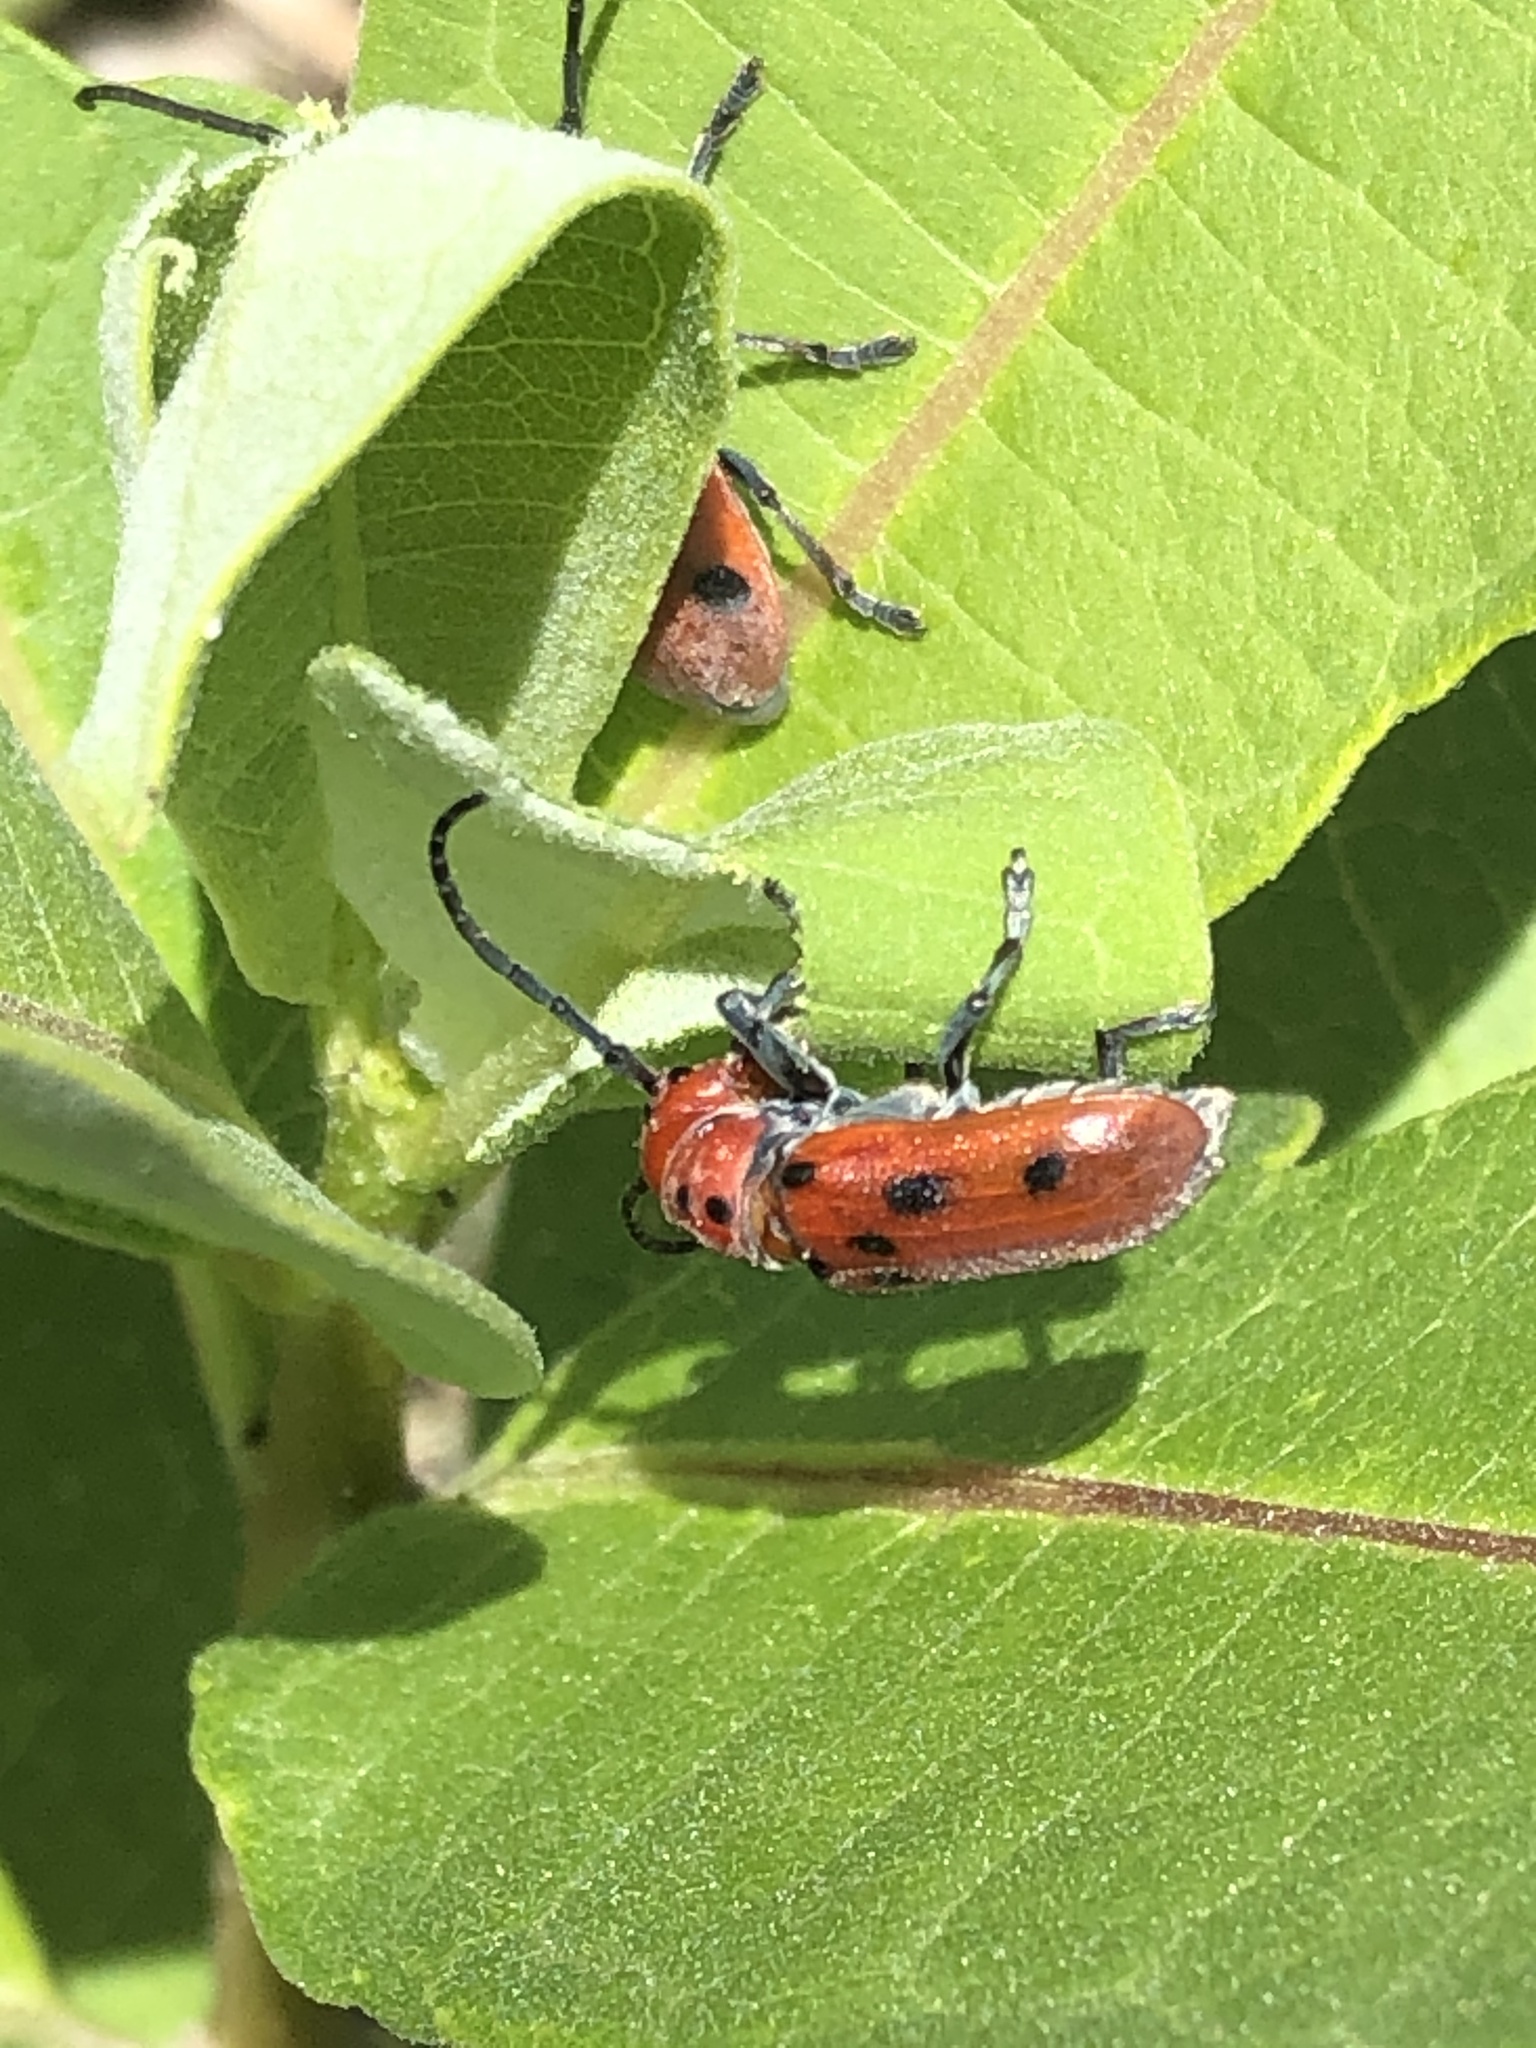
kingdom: Animalia
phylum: Arthropoda
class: Insecta
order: Coleoptera
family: Cerambycidae
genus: Tetraopes
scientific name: Tetraopes tetrophthalmus
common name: Red milkweed beetle
